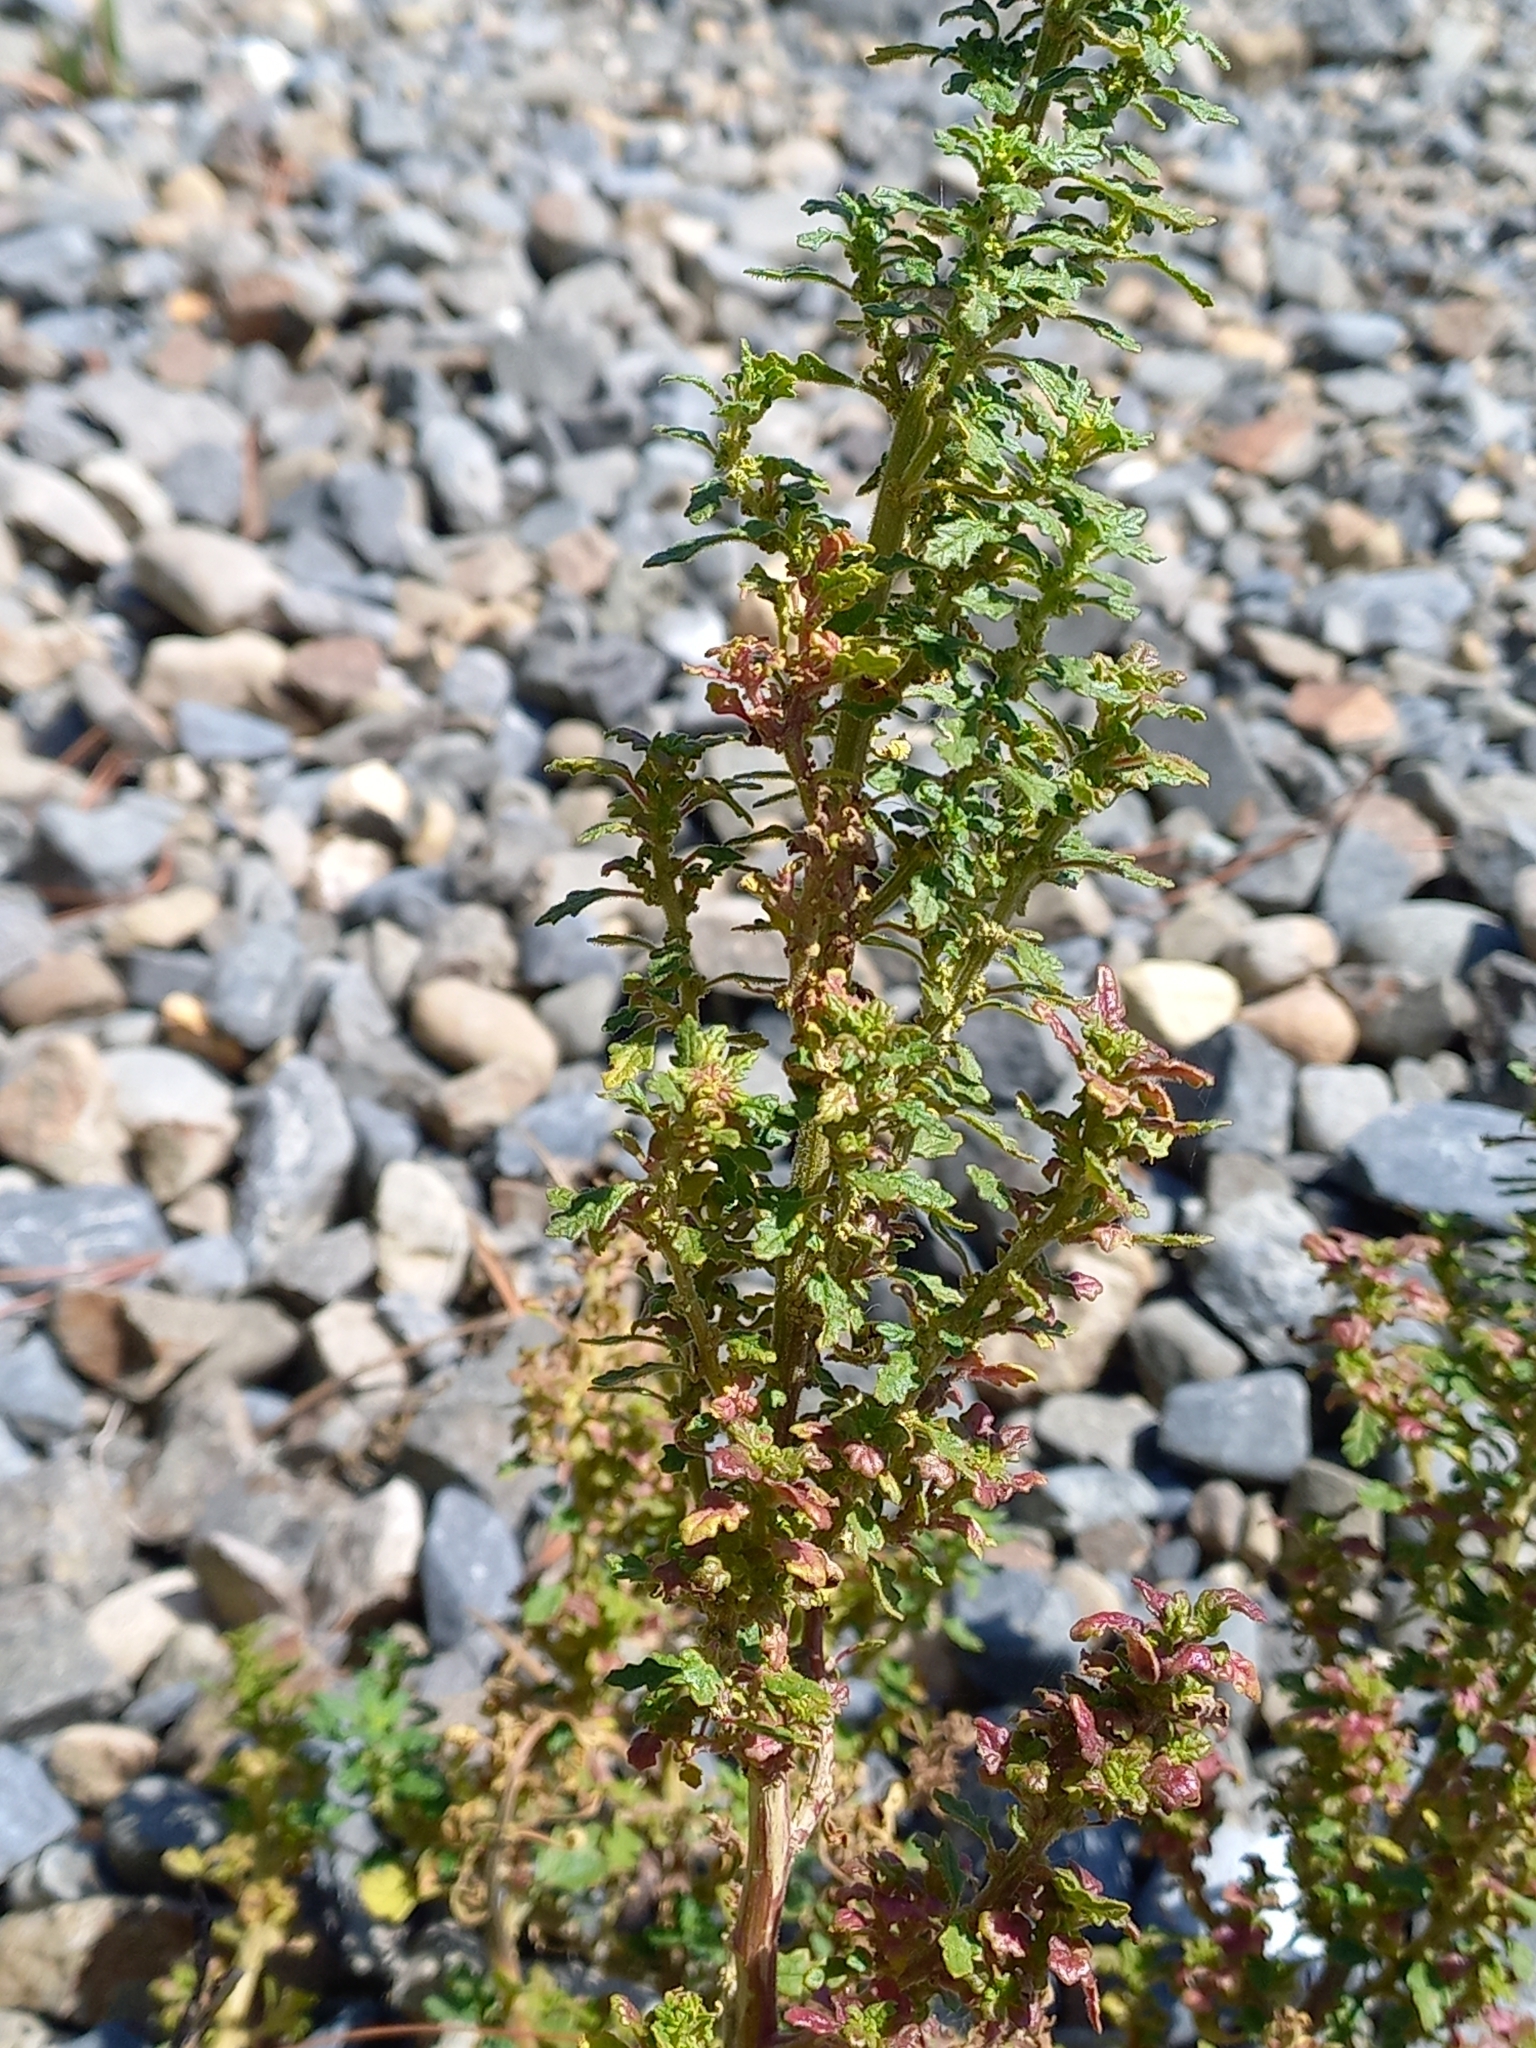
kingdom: Plantae
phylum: Tracheophyta
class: Magnoliopsida
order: Caryophyllales
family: Amaranthaceae
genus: Dysphania
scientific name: Dysphania pumilio
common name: Clammy goosefoot
